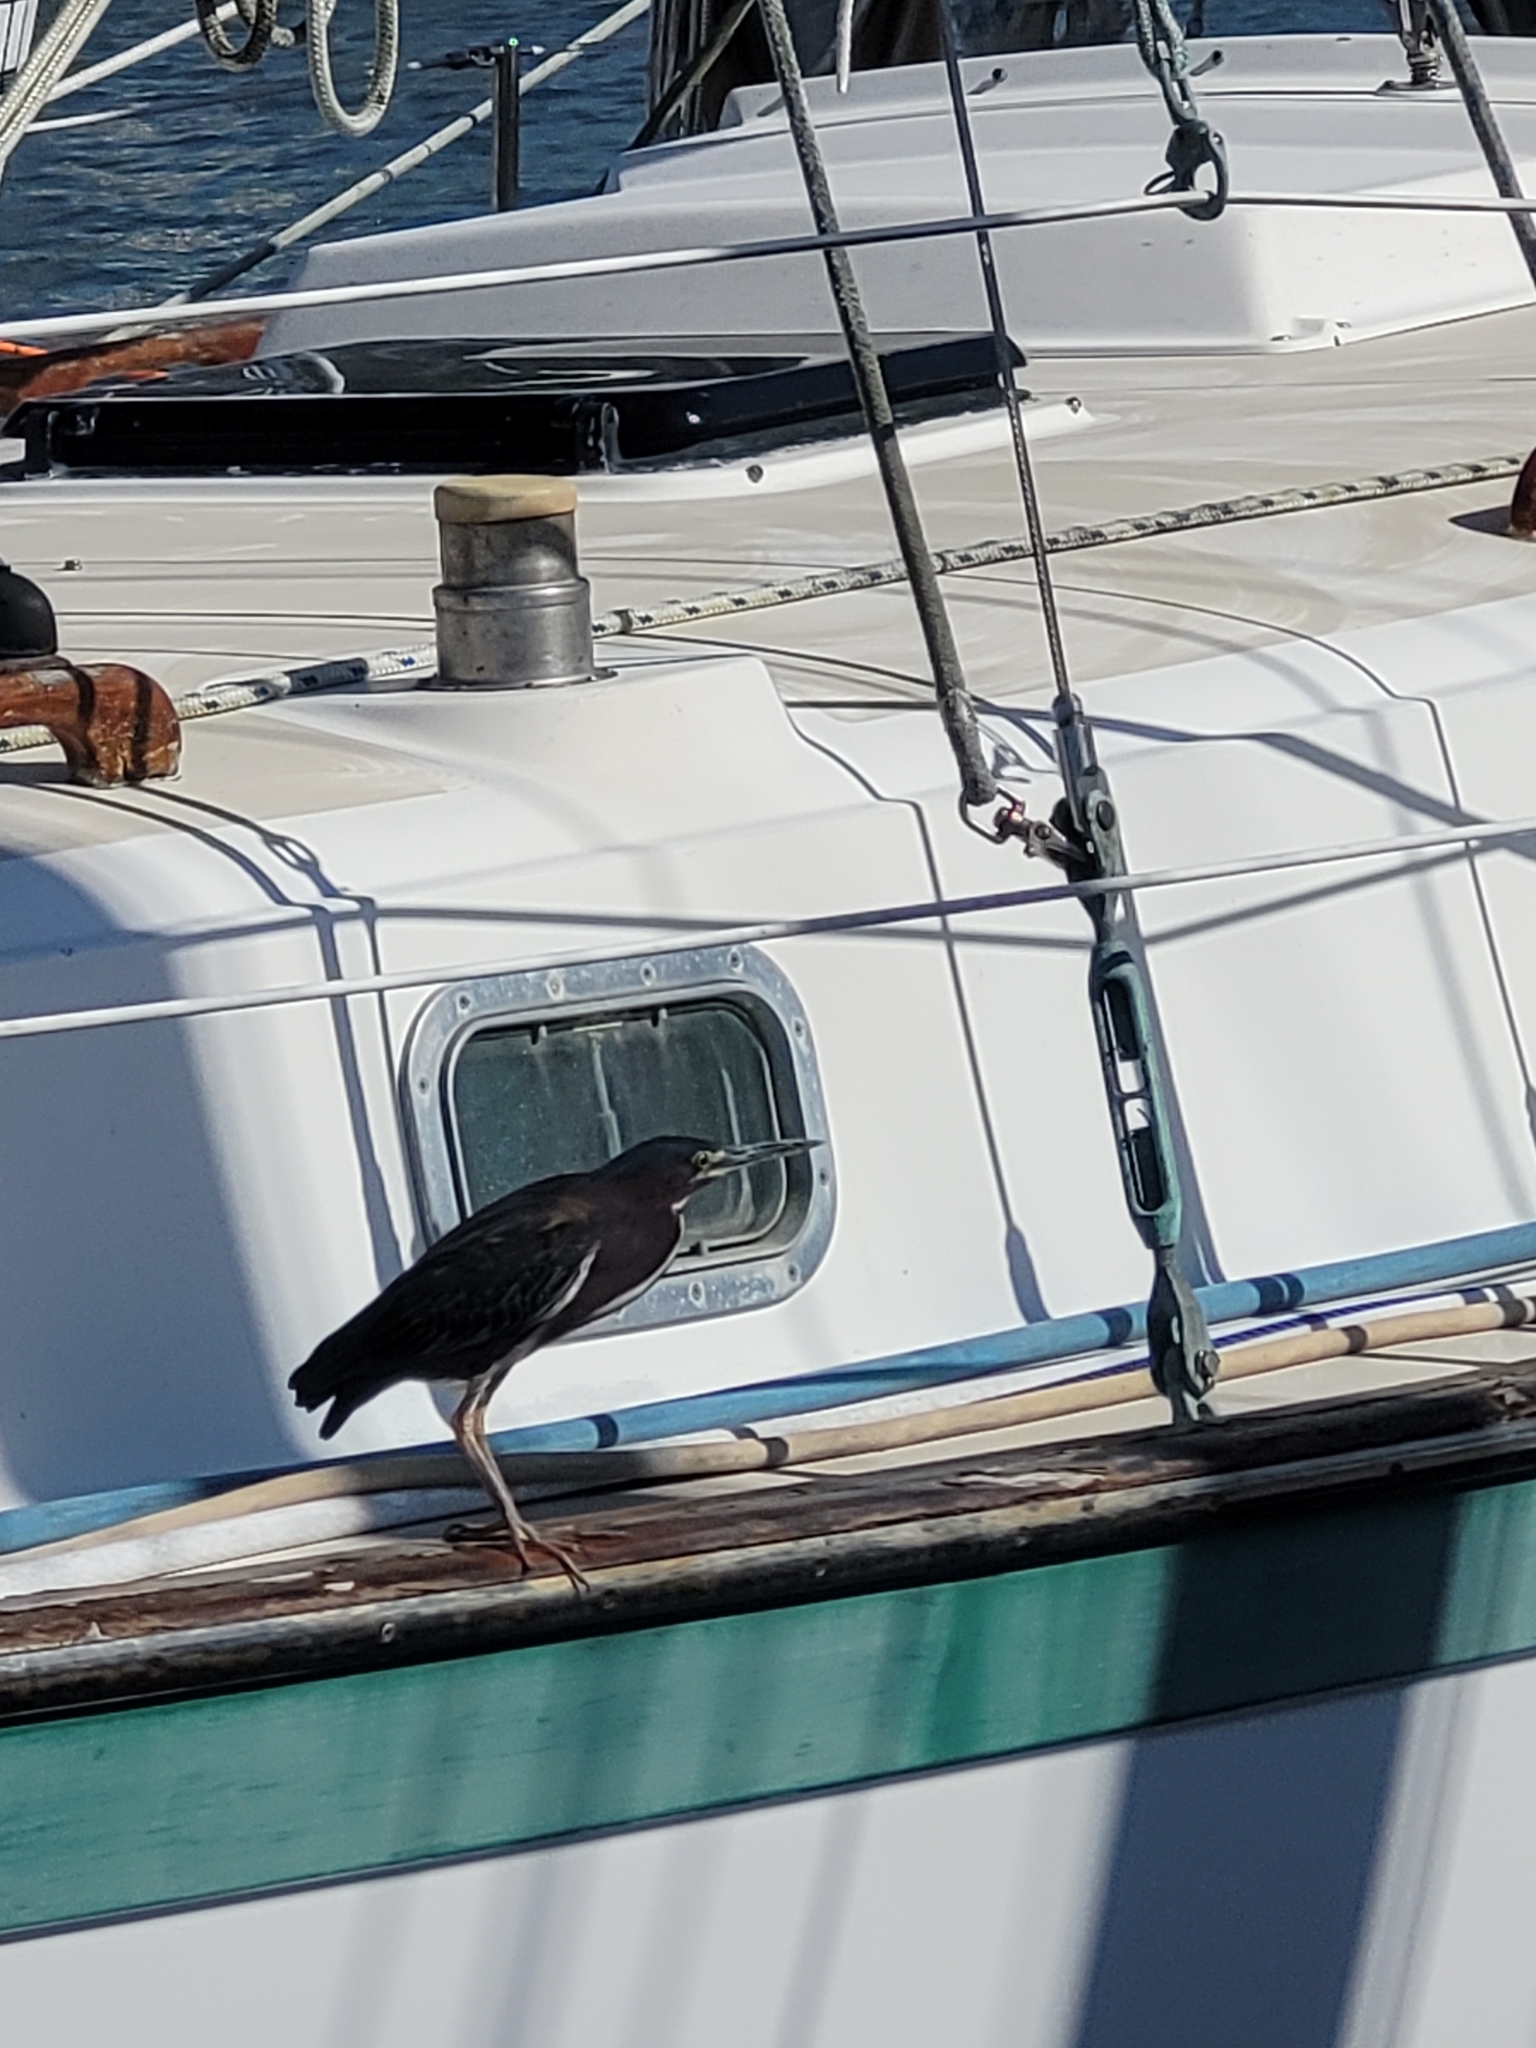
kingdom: Animalia
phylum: Chordata
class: Aves
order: Pelecaniformes
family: Ardeidae
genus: Butorides
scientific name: Butorides virescens
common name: Green heron
